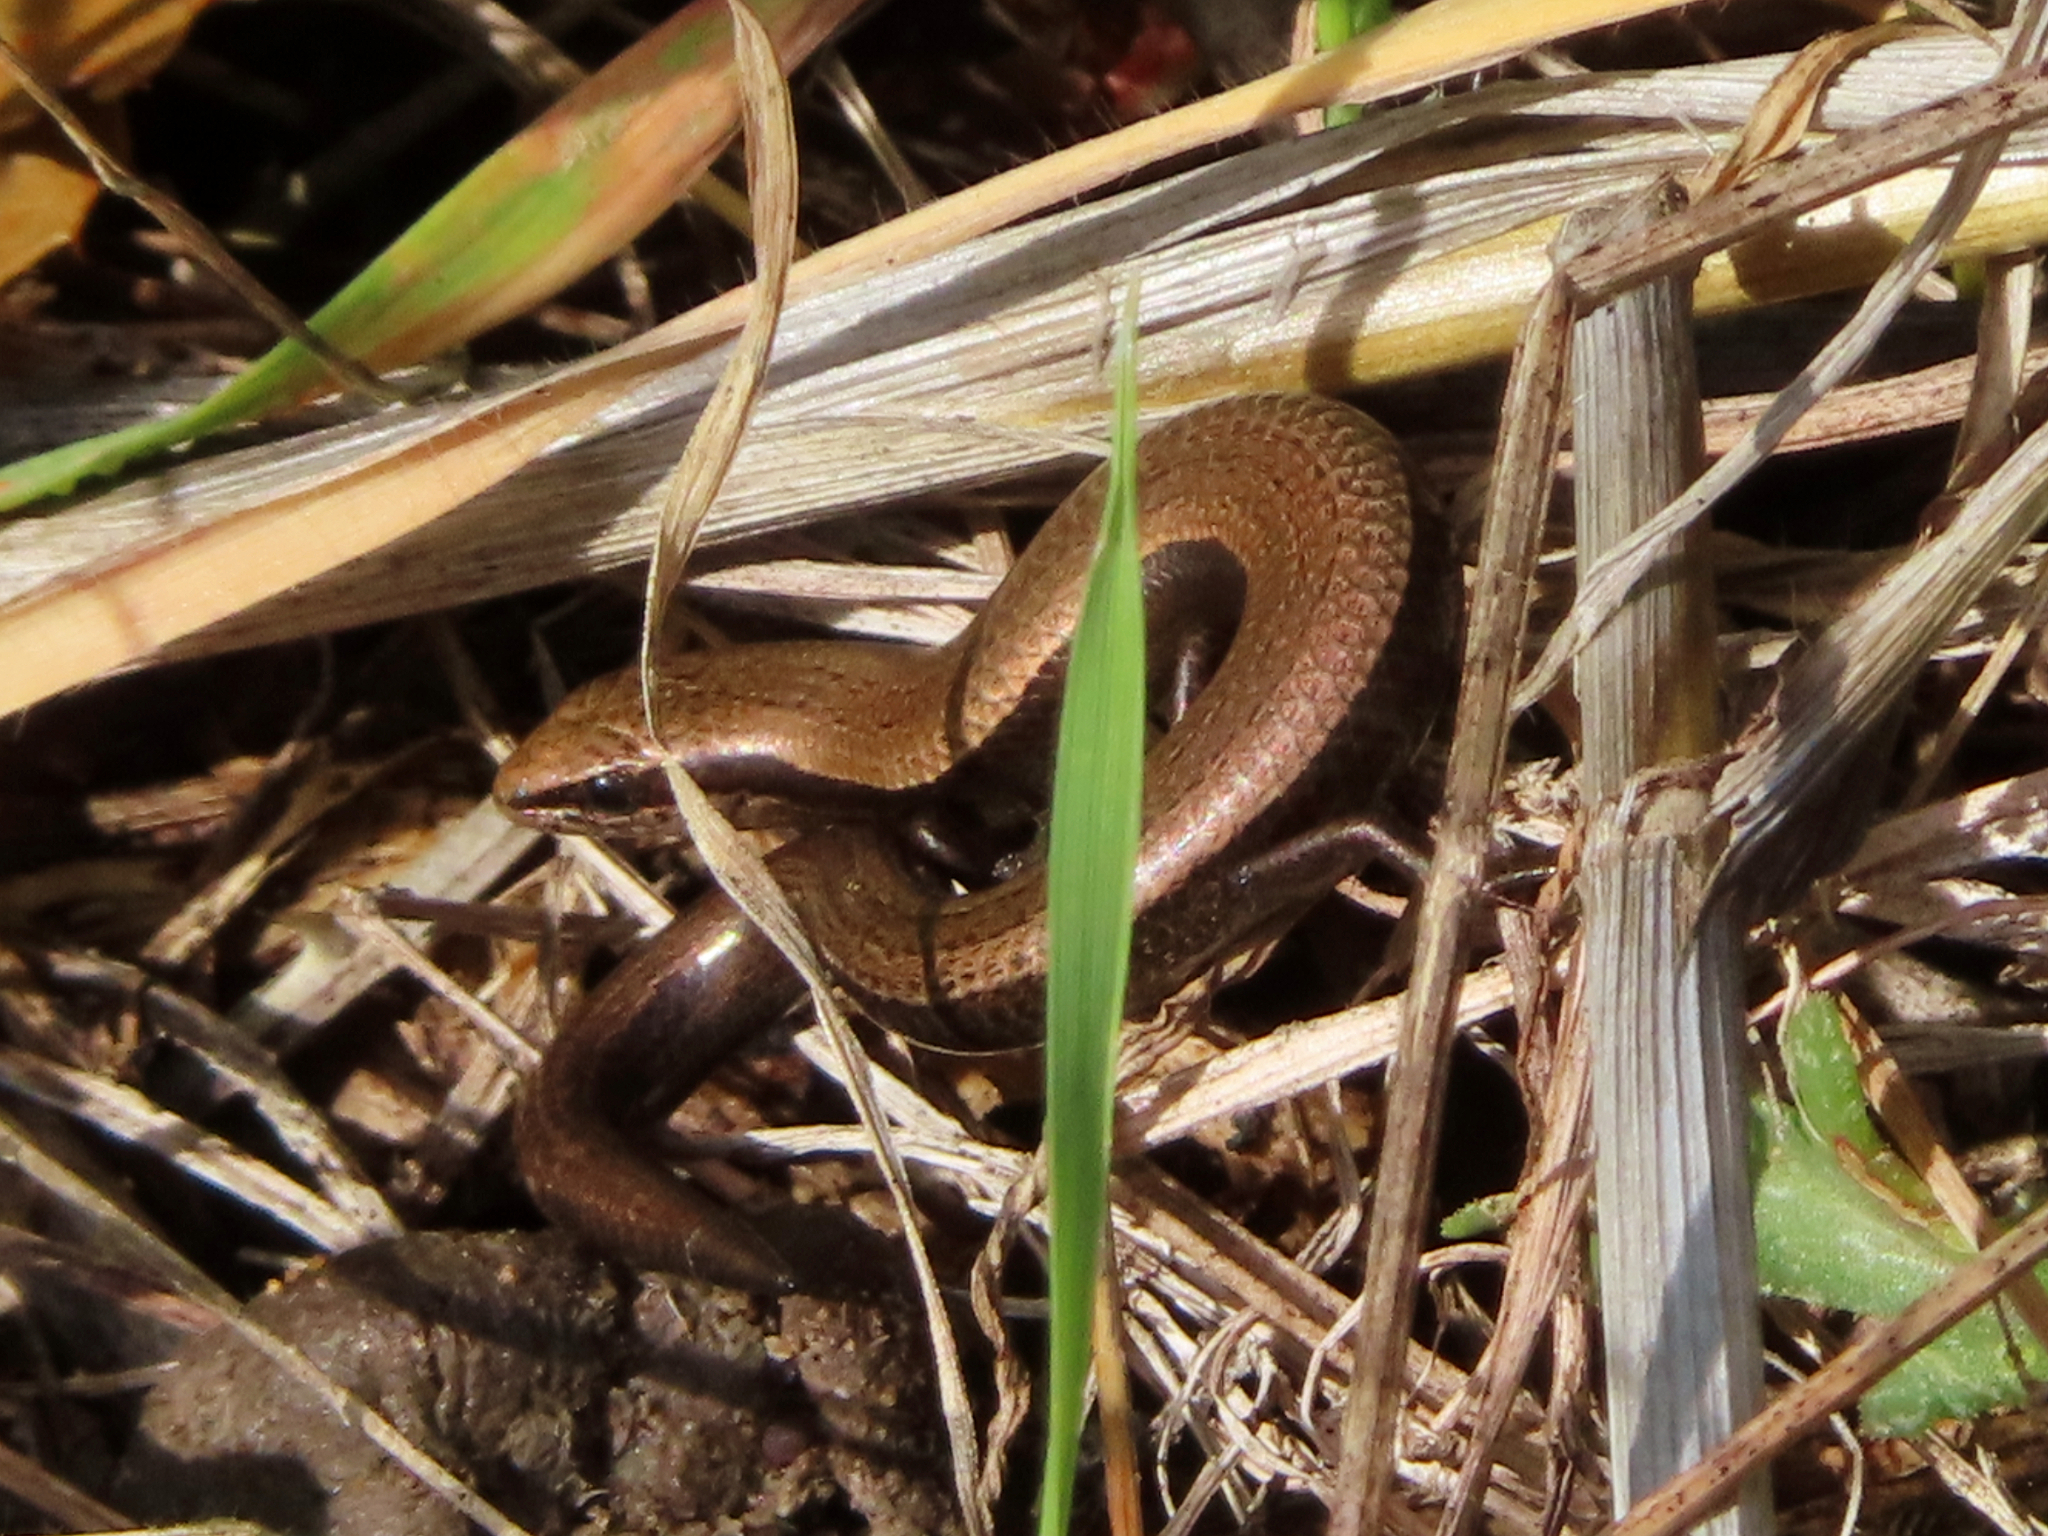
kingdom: Animalia
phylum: Chordata
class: Squamata
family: Scincidae
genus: Ablepharus
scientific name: Ablepharus kitaibelii
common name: Juniper skink
